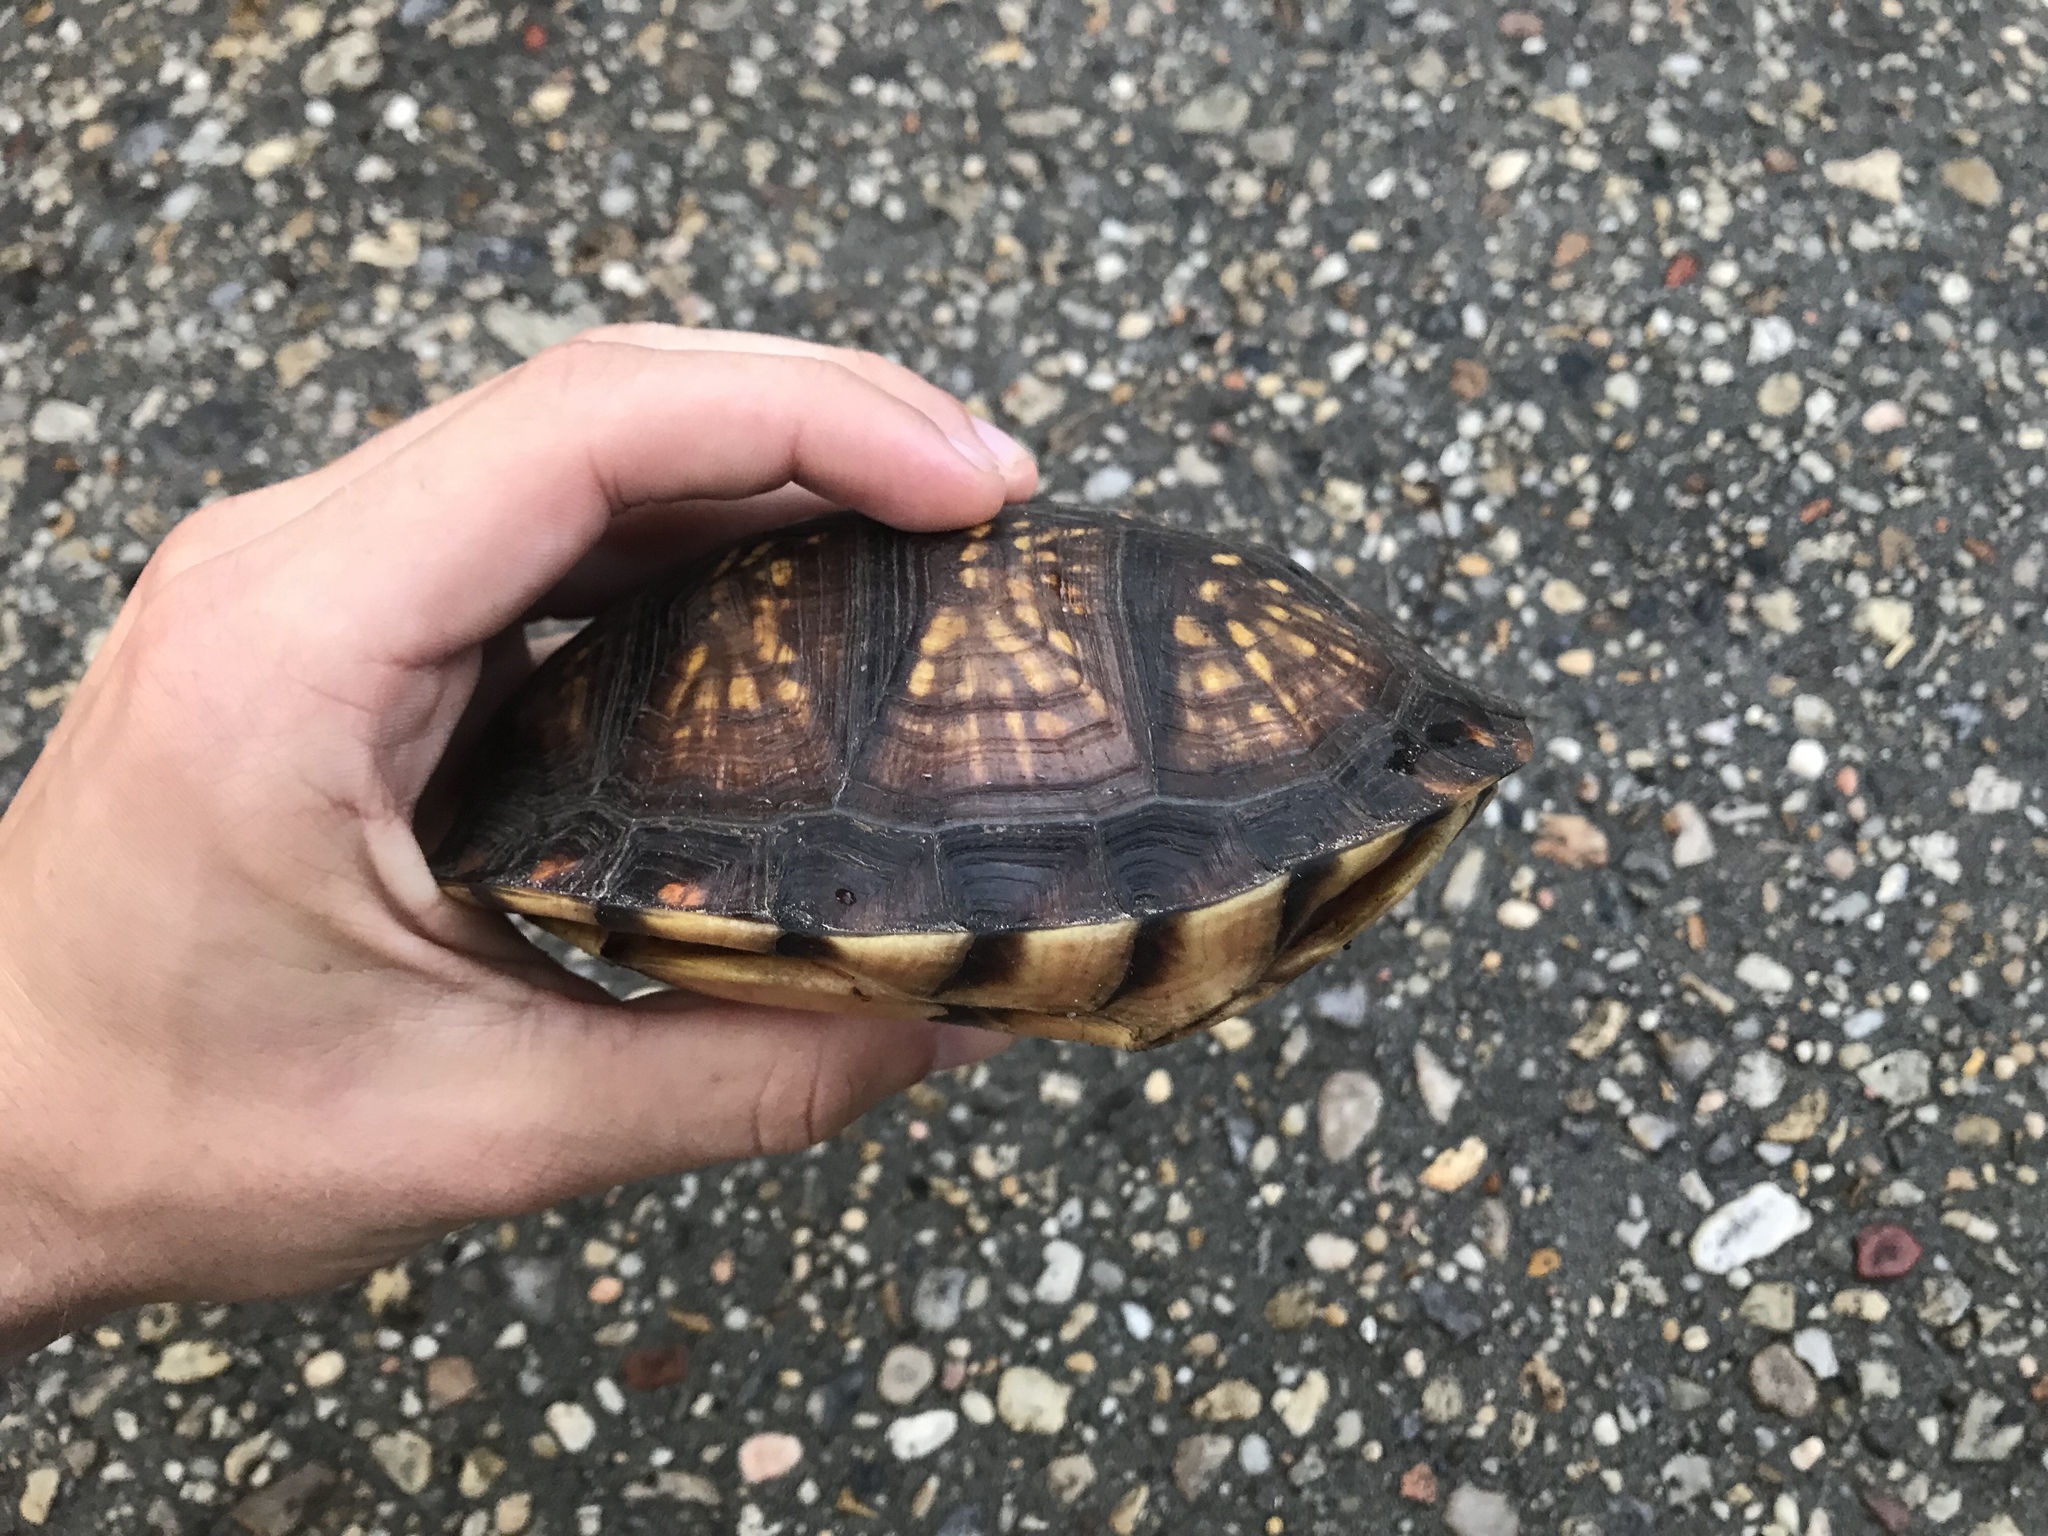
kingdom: Animalia
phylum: Chordata
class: Testudines
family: Emydidae
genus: Terrapene
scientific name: Terrapene carolina
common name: Common box turtle
